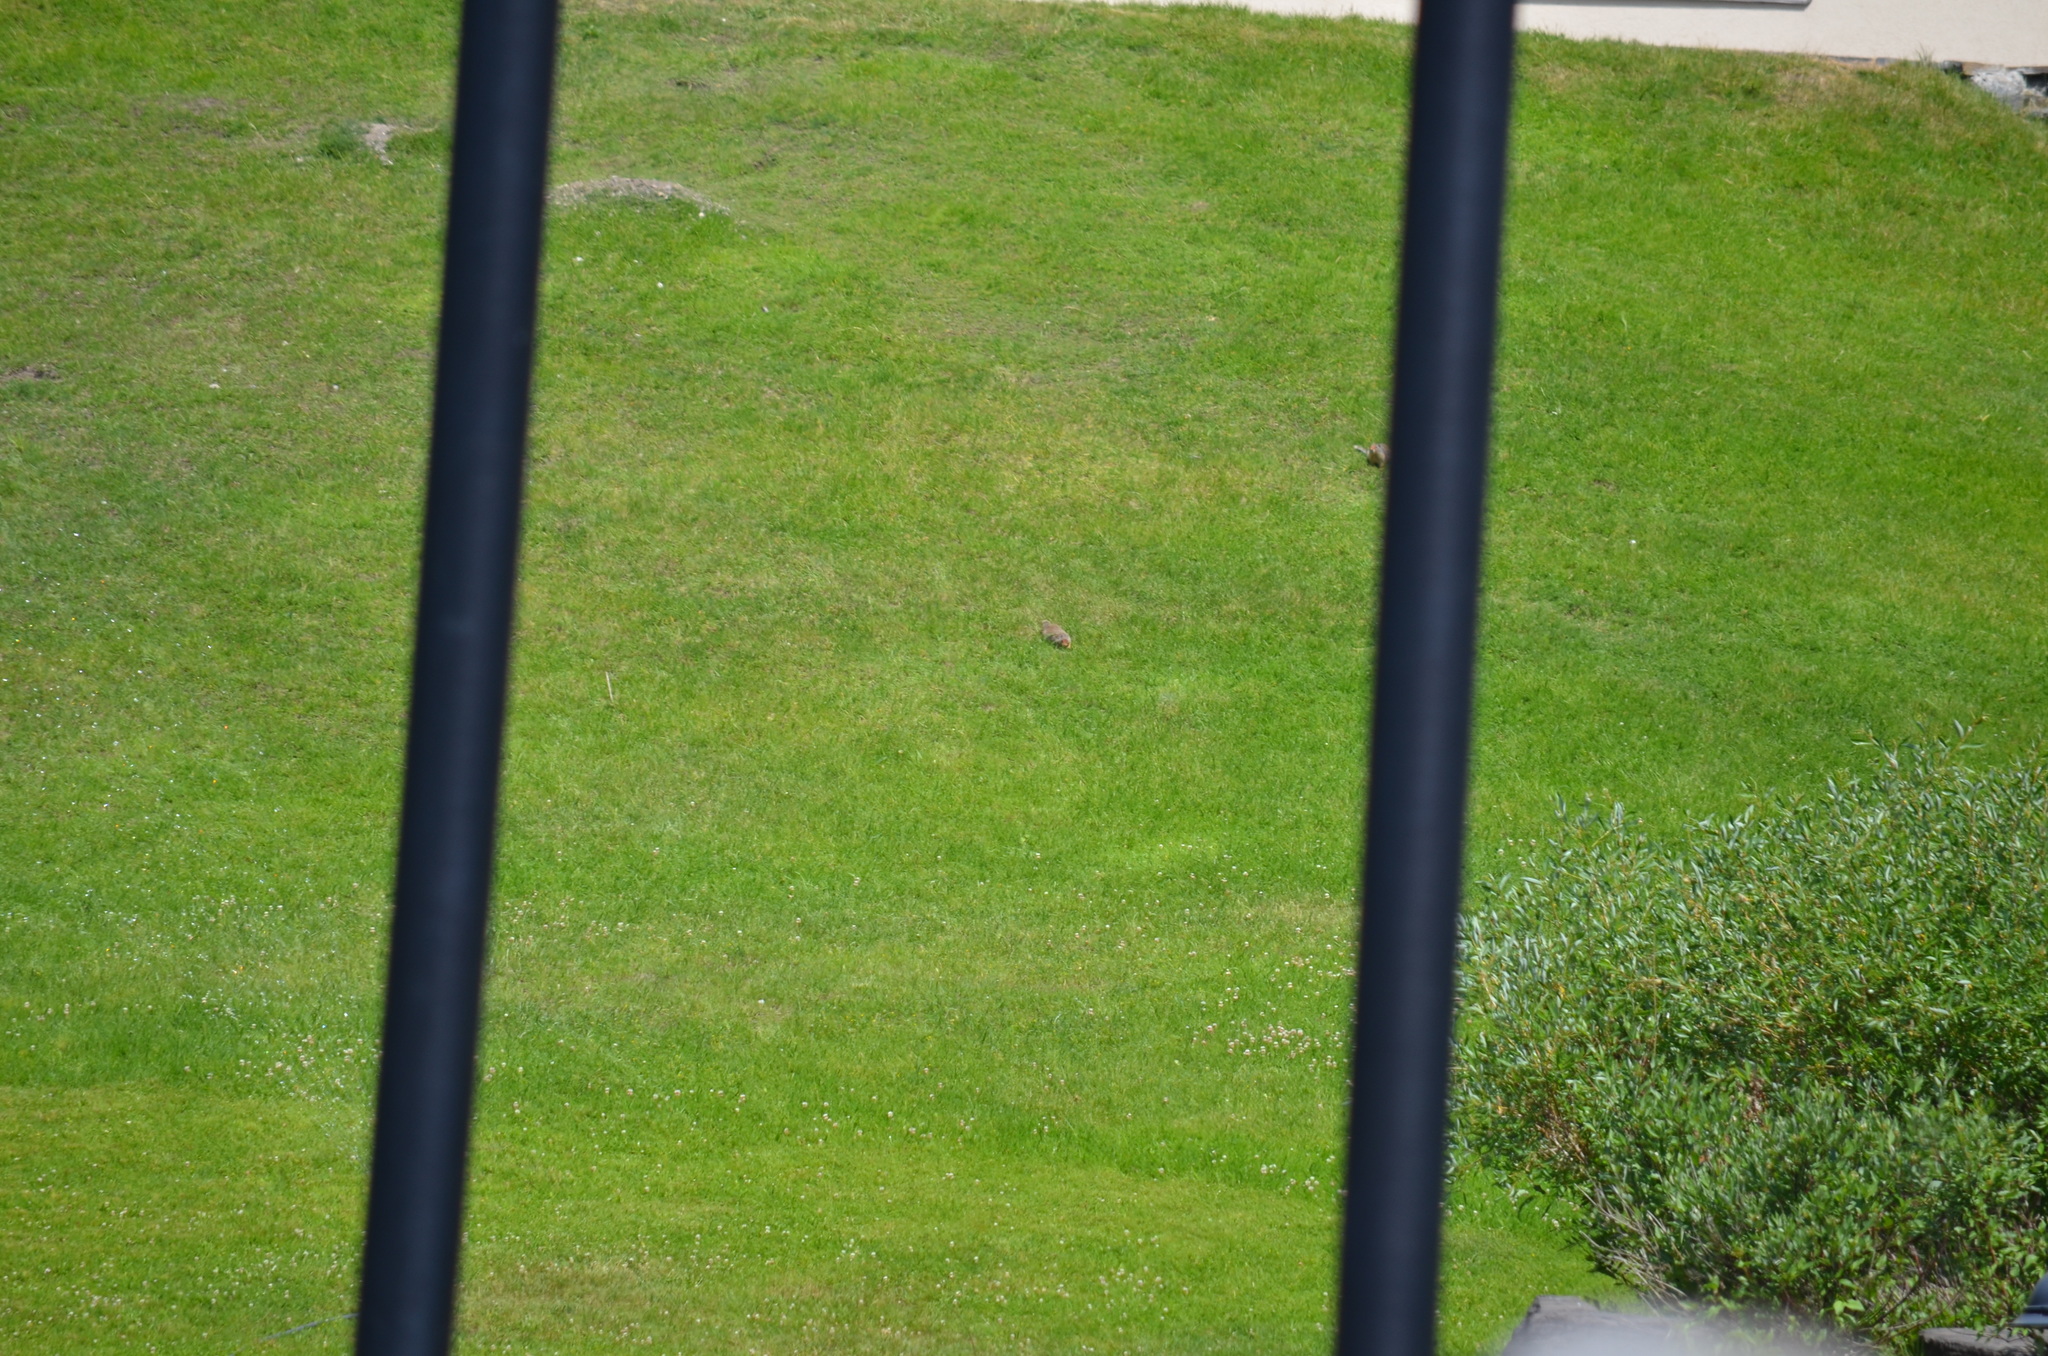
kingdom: Animalia
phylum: Chordata
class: Mammalia
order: Rodentia
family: Sciuridae
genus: Urocitellus
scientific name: Urocitellus columbianus
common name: Columbian ground squirrel
